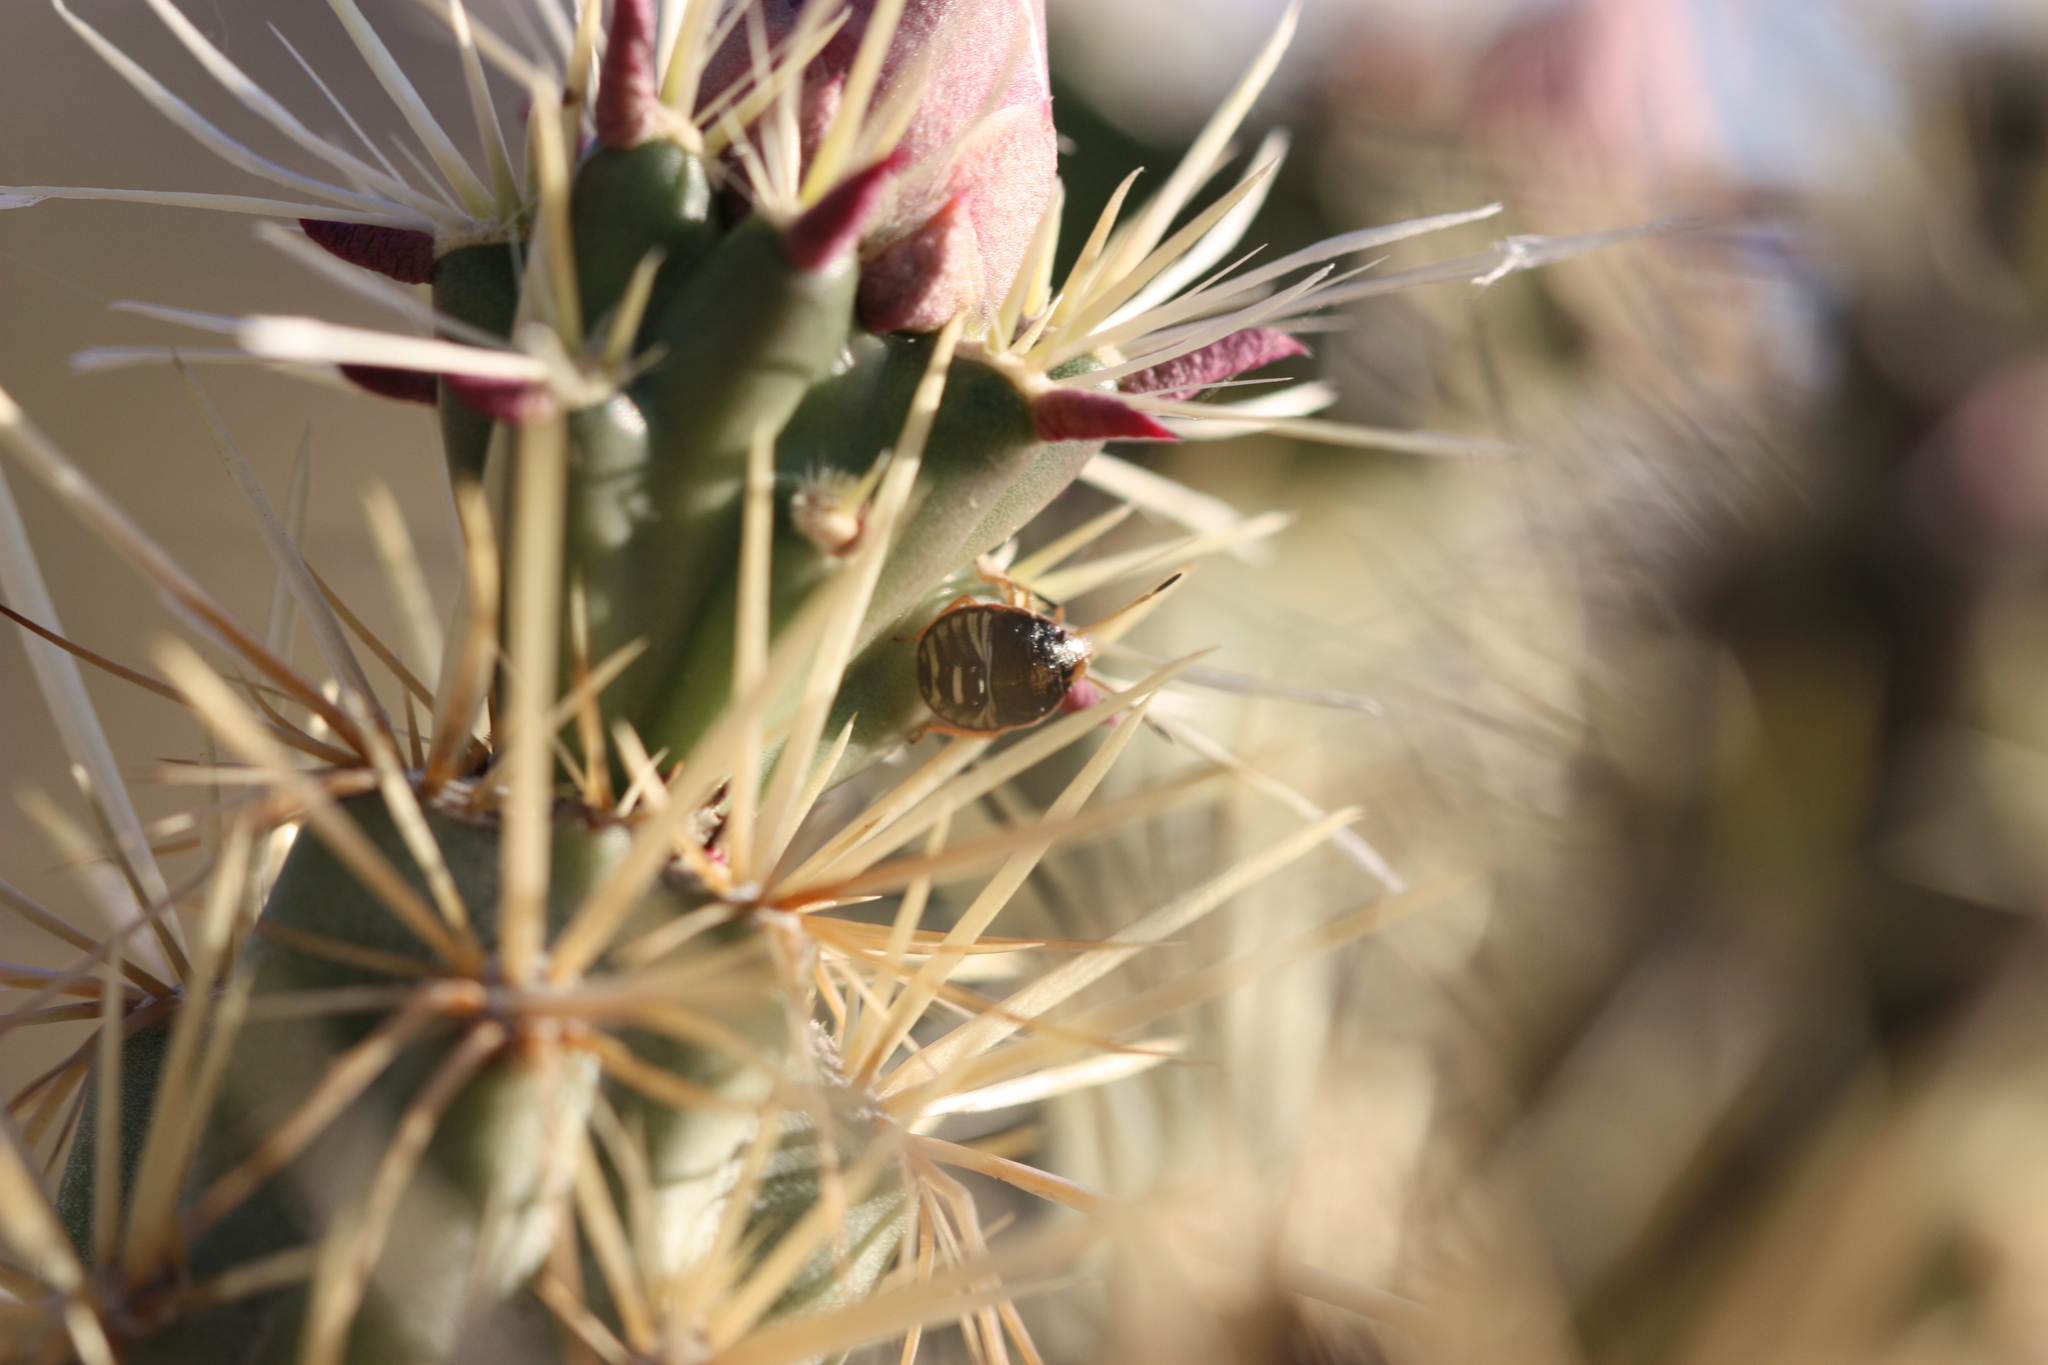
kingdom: Animalia
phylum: Arthropoda
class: Insecta
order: Hemiptera
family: Pentatomidae
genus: Chlorochroa
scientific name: Chlorochroa opuntiae
